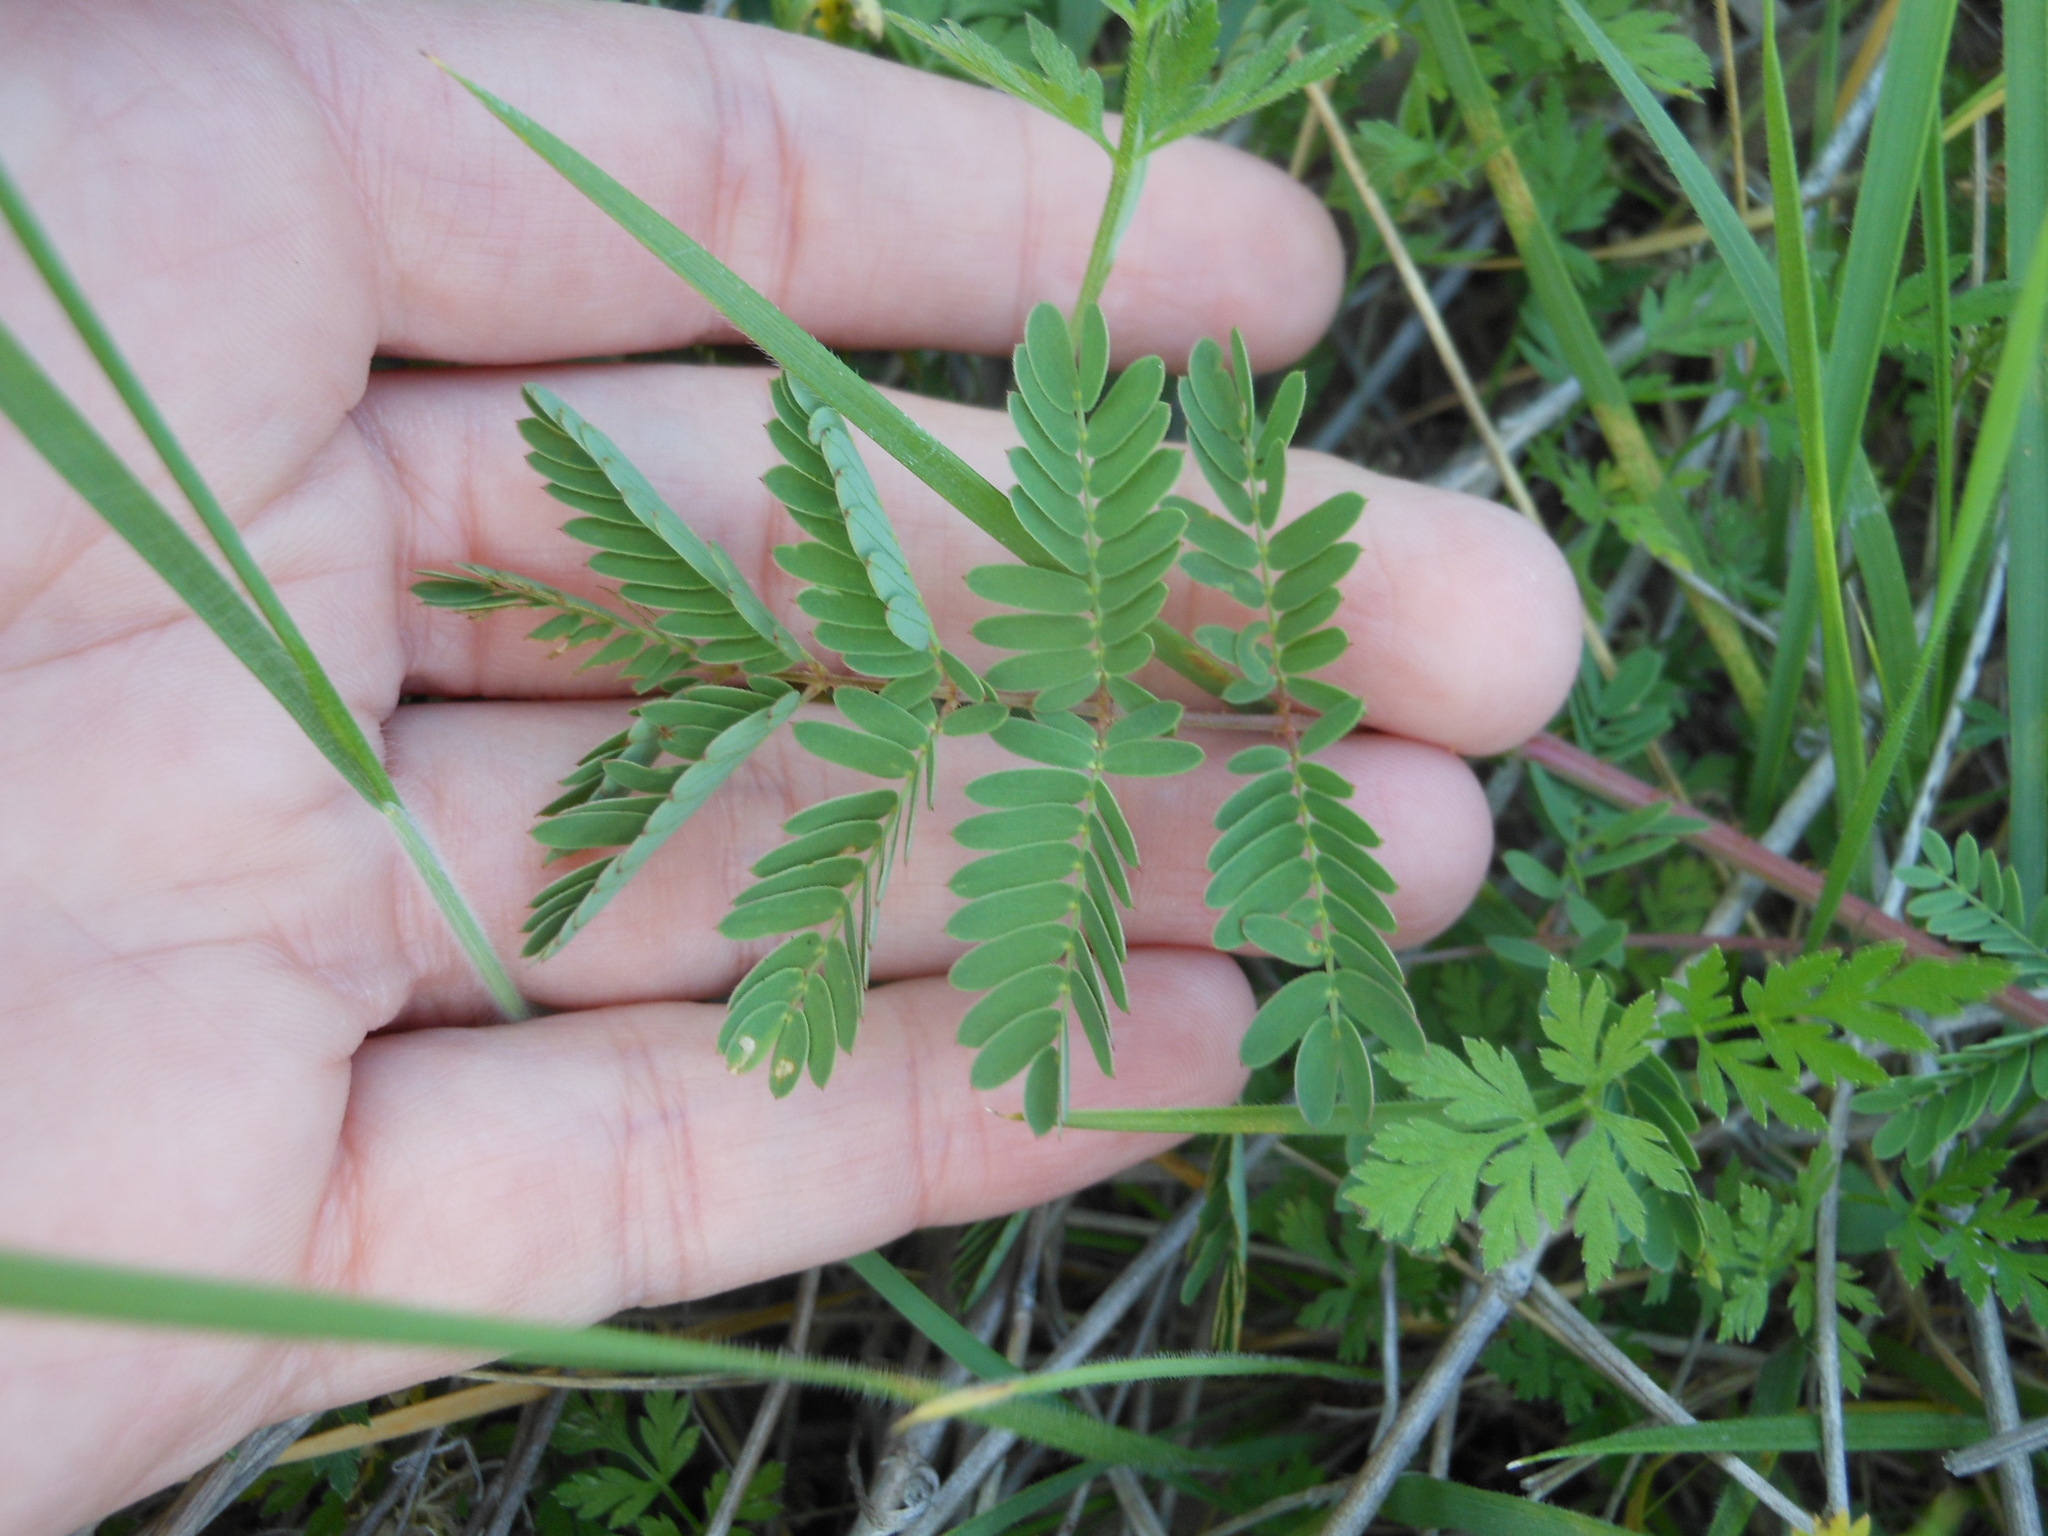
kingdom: Plantae
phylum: Tracheophyta
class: Magnoliopsida
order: Fabales
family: Fabaceae
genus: Mimosa
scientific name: Mimosa quadrivalvis
